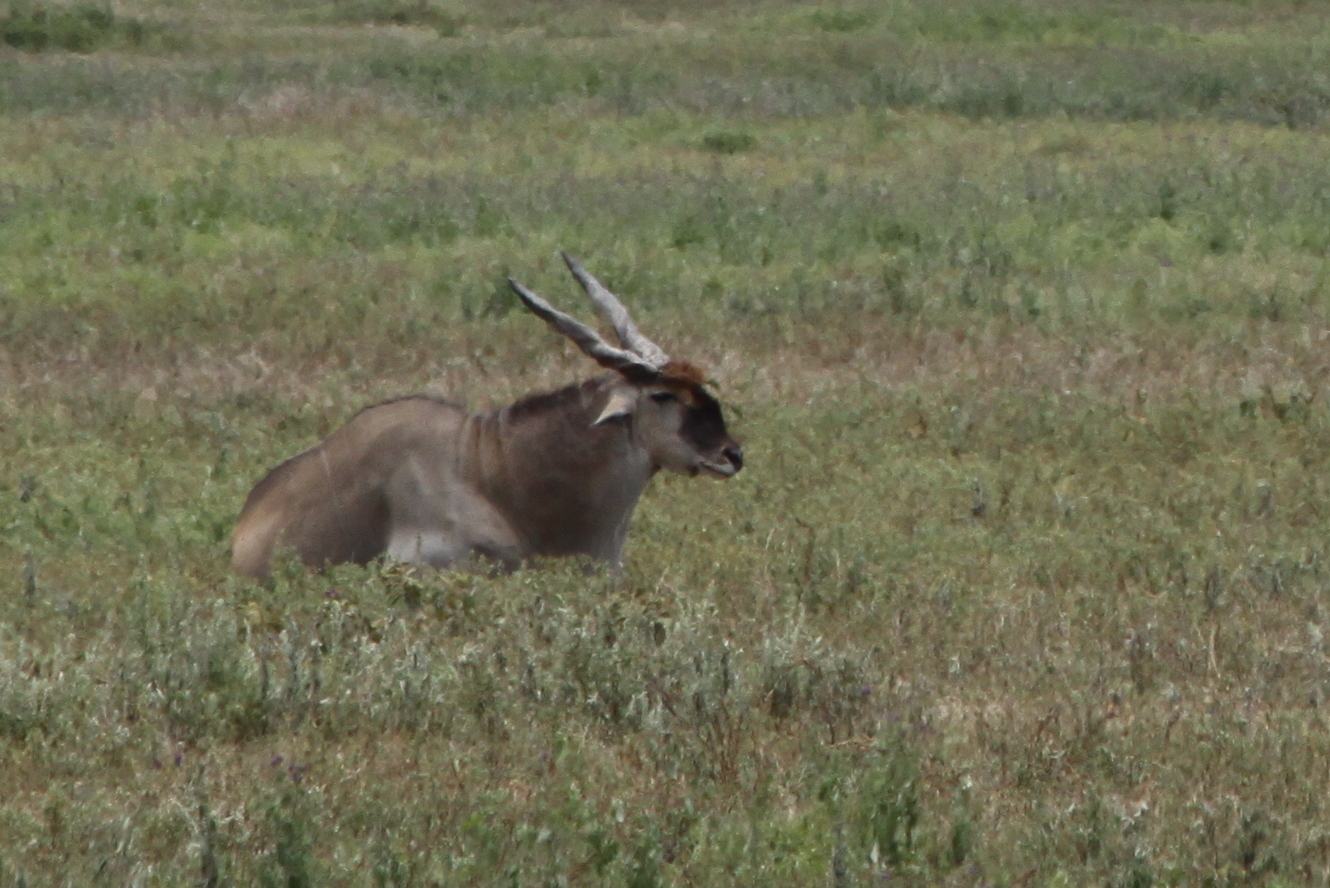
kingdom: Animalia
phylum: Chordata
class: Mammalia
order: Artiodactyla
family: Bovidae
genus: Taurotragus
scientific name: Taurotragus oryx
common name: Common eland
